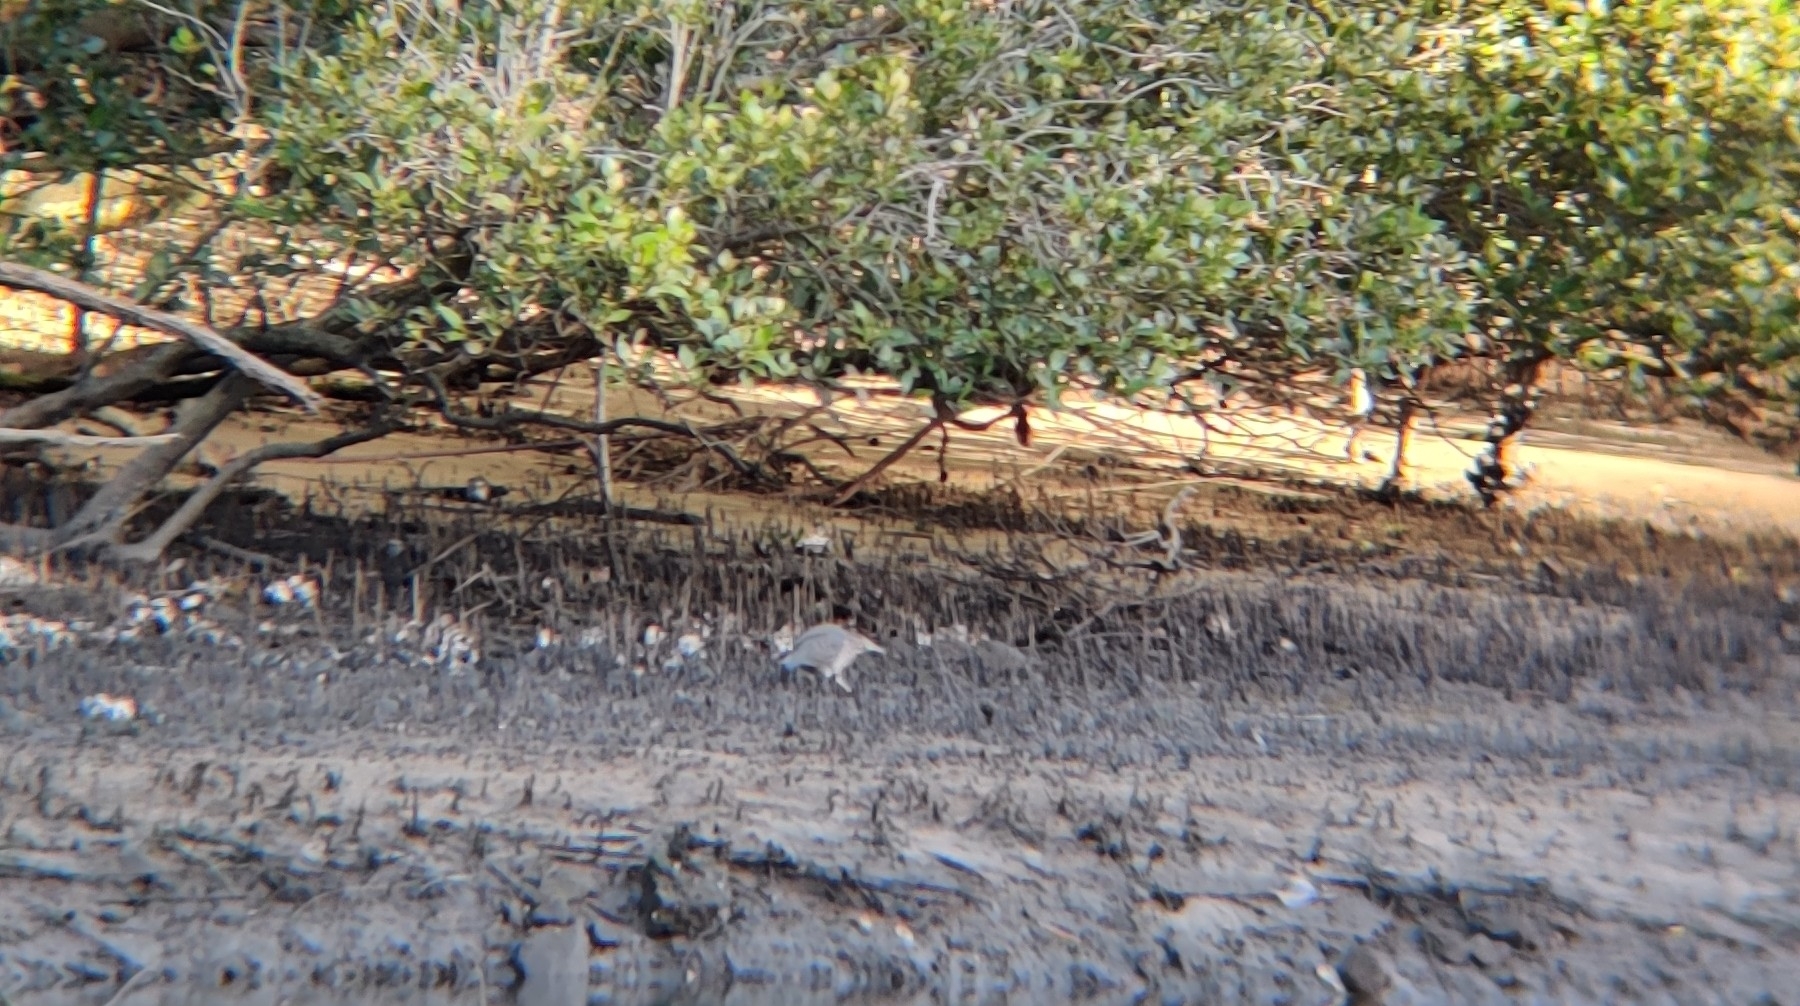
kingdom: Animalia
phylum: Chordata
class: Aves
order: Pelecaniformes
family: Ardeidae
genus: Butorides
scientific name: Butorides striata
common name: Striated heron
